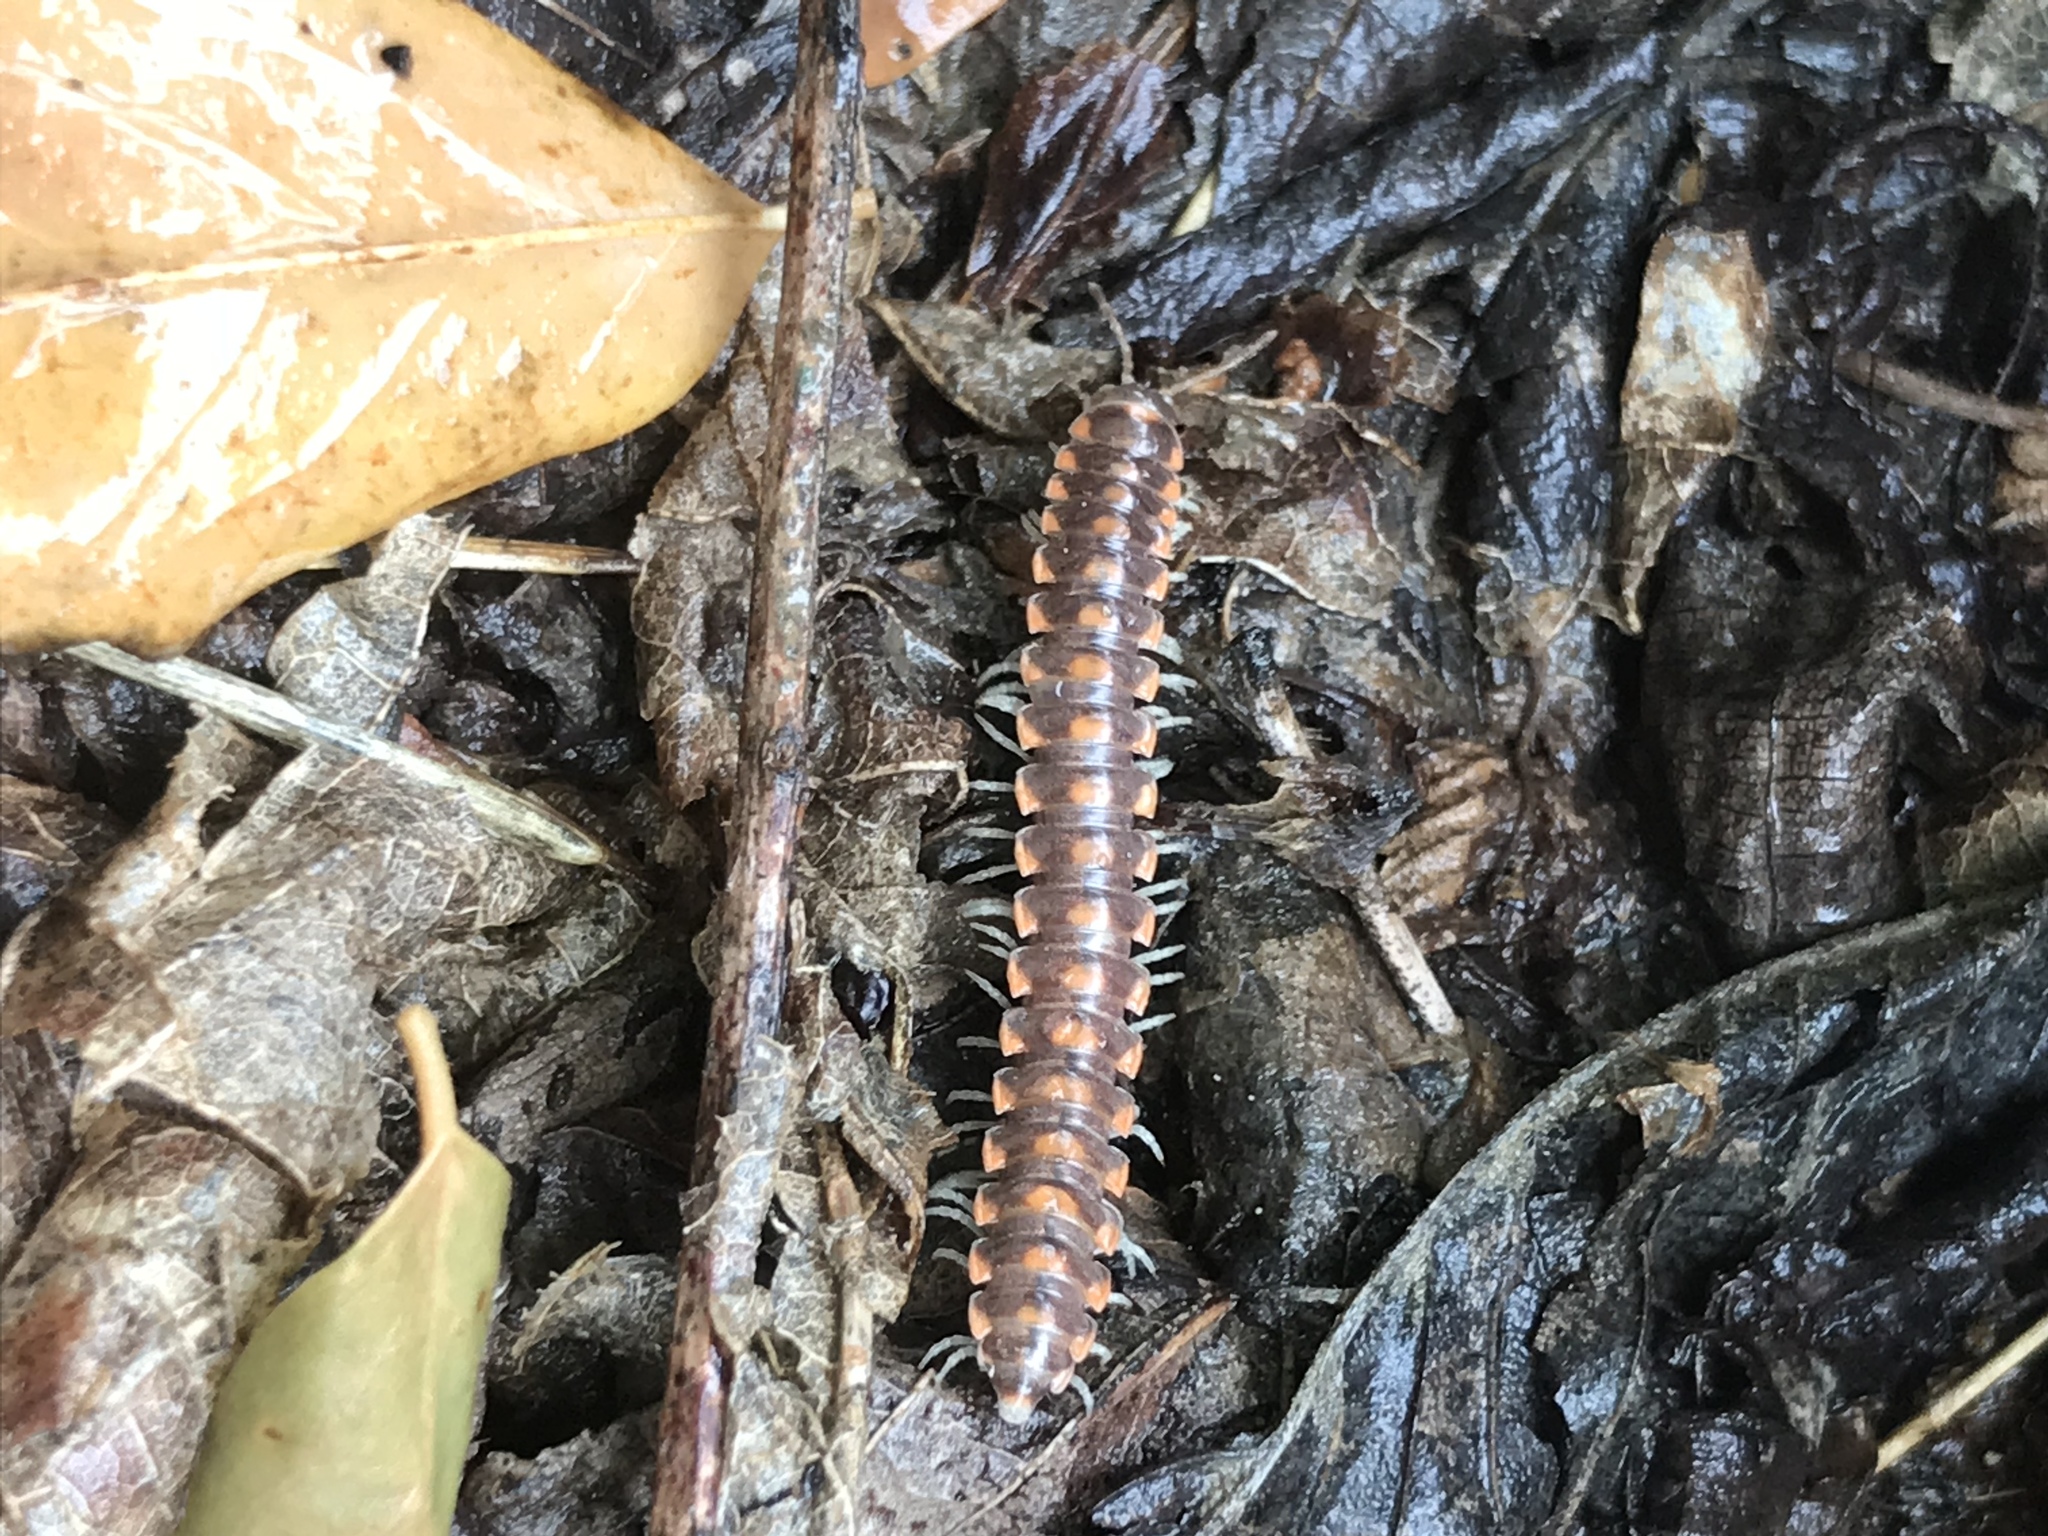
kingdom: Animalia
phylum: Arthropoda
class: Diplopoda
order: Polydesmida
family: Xystodesmidae
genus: Euryurus
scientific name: Euryurus leachii
